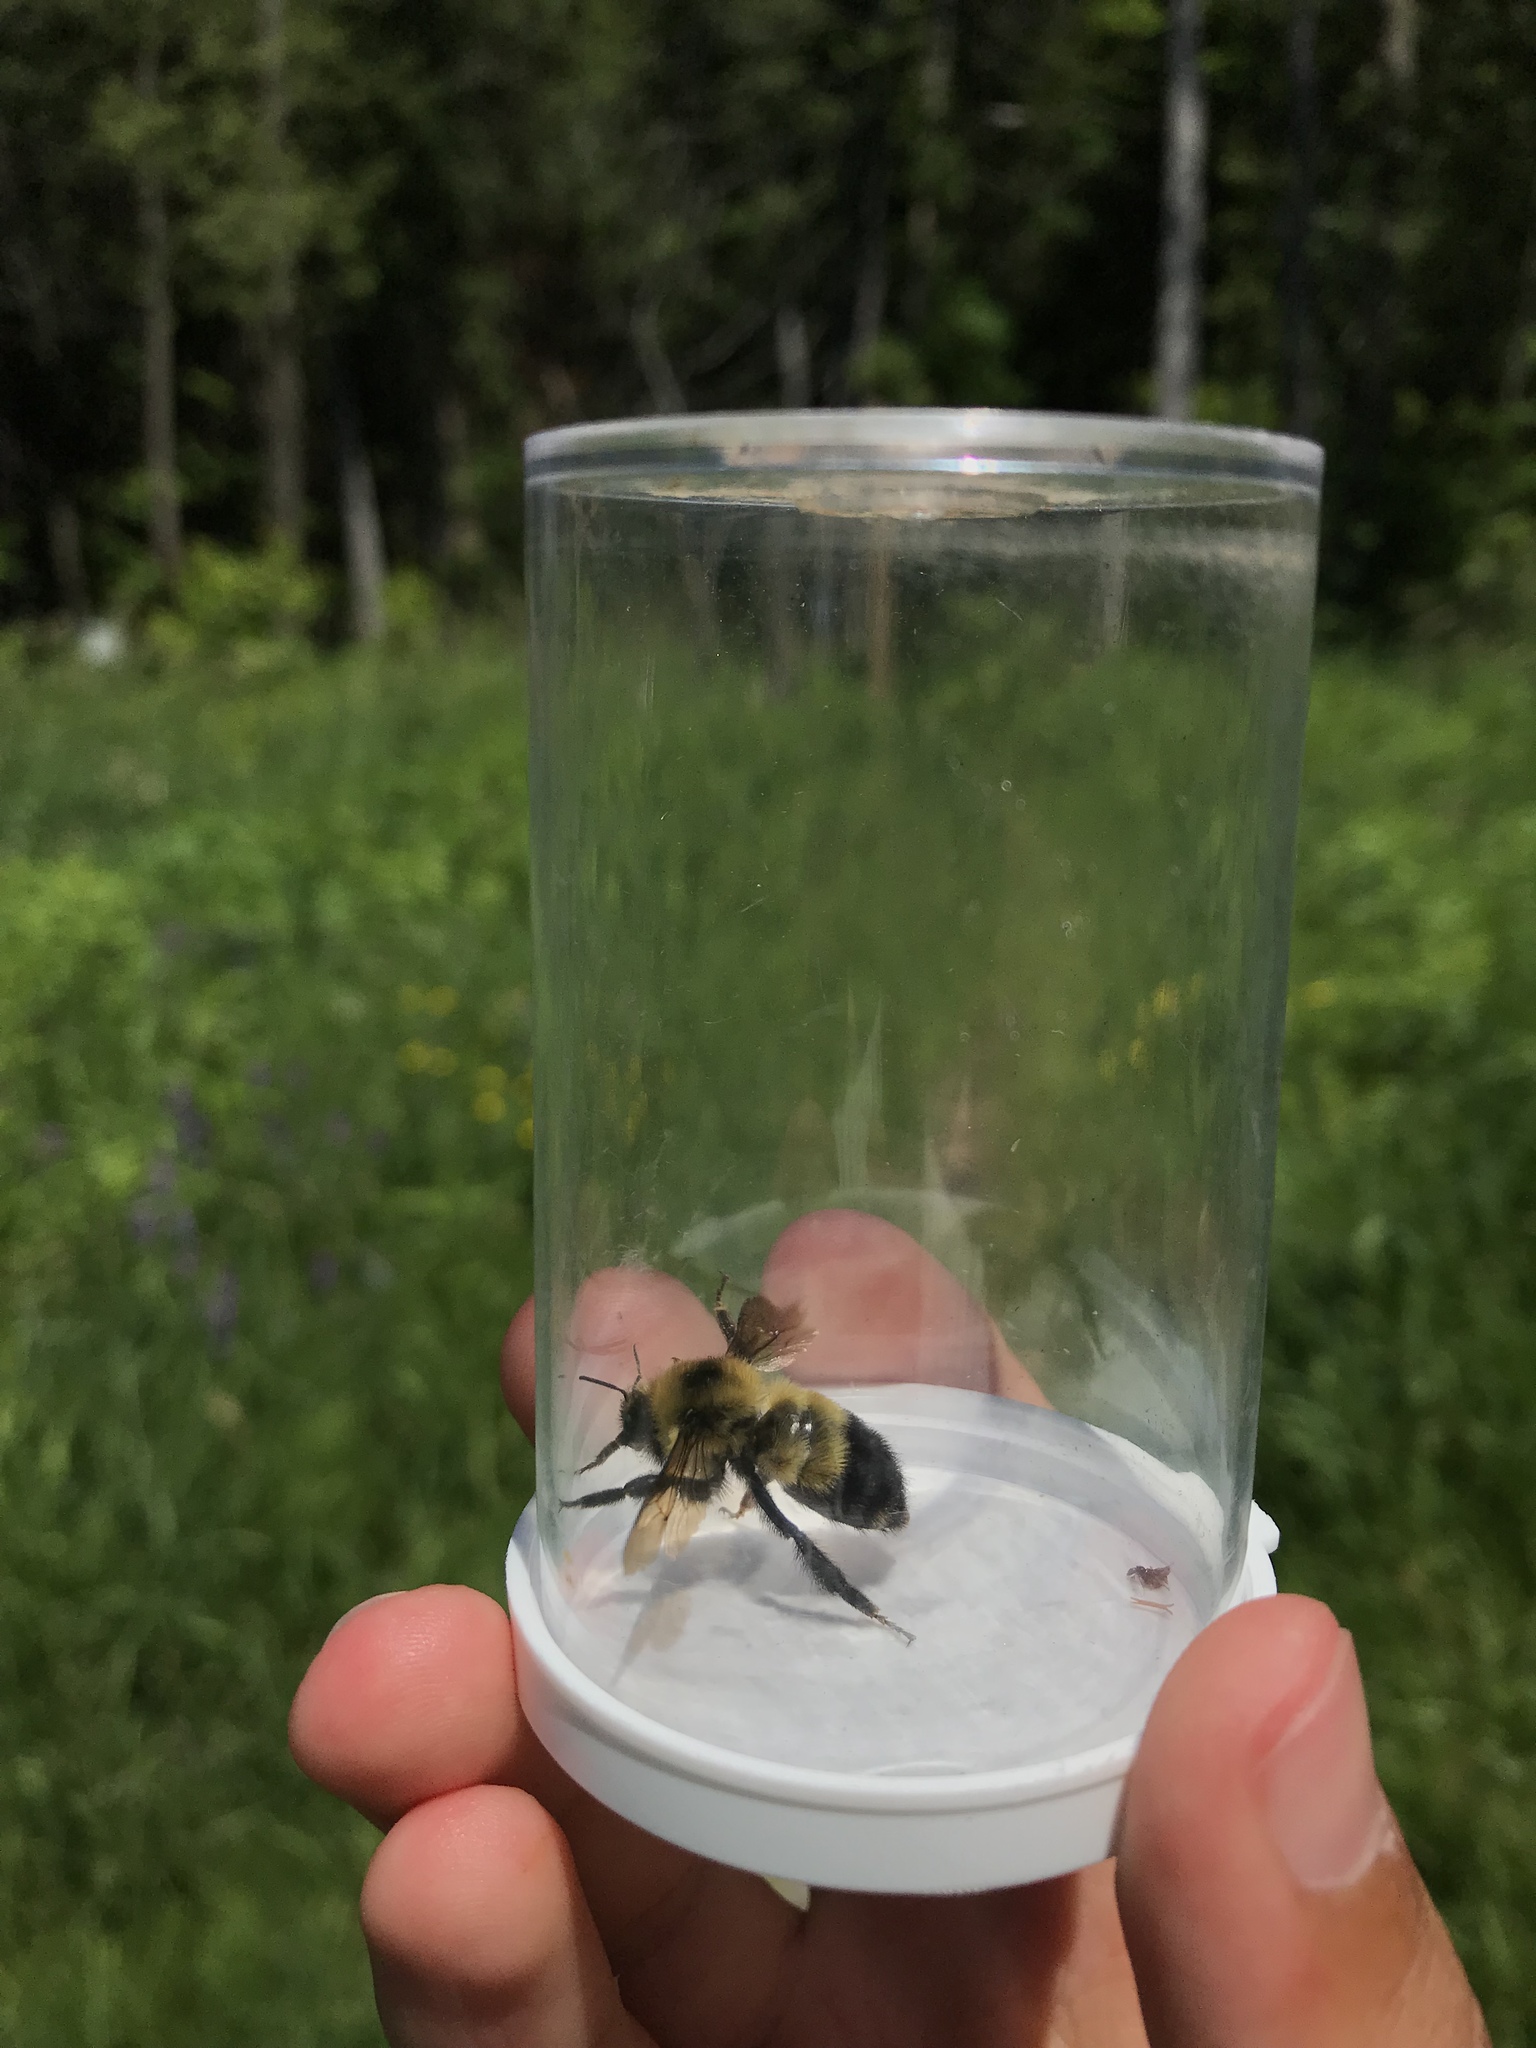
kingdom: Animalia
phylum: Arthropoda
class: Insecta
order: Hymenoptera
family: Apidae
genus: Bombus
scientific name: Bombus rufocinctus
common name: Red-belted bumble bee
